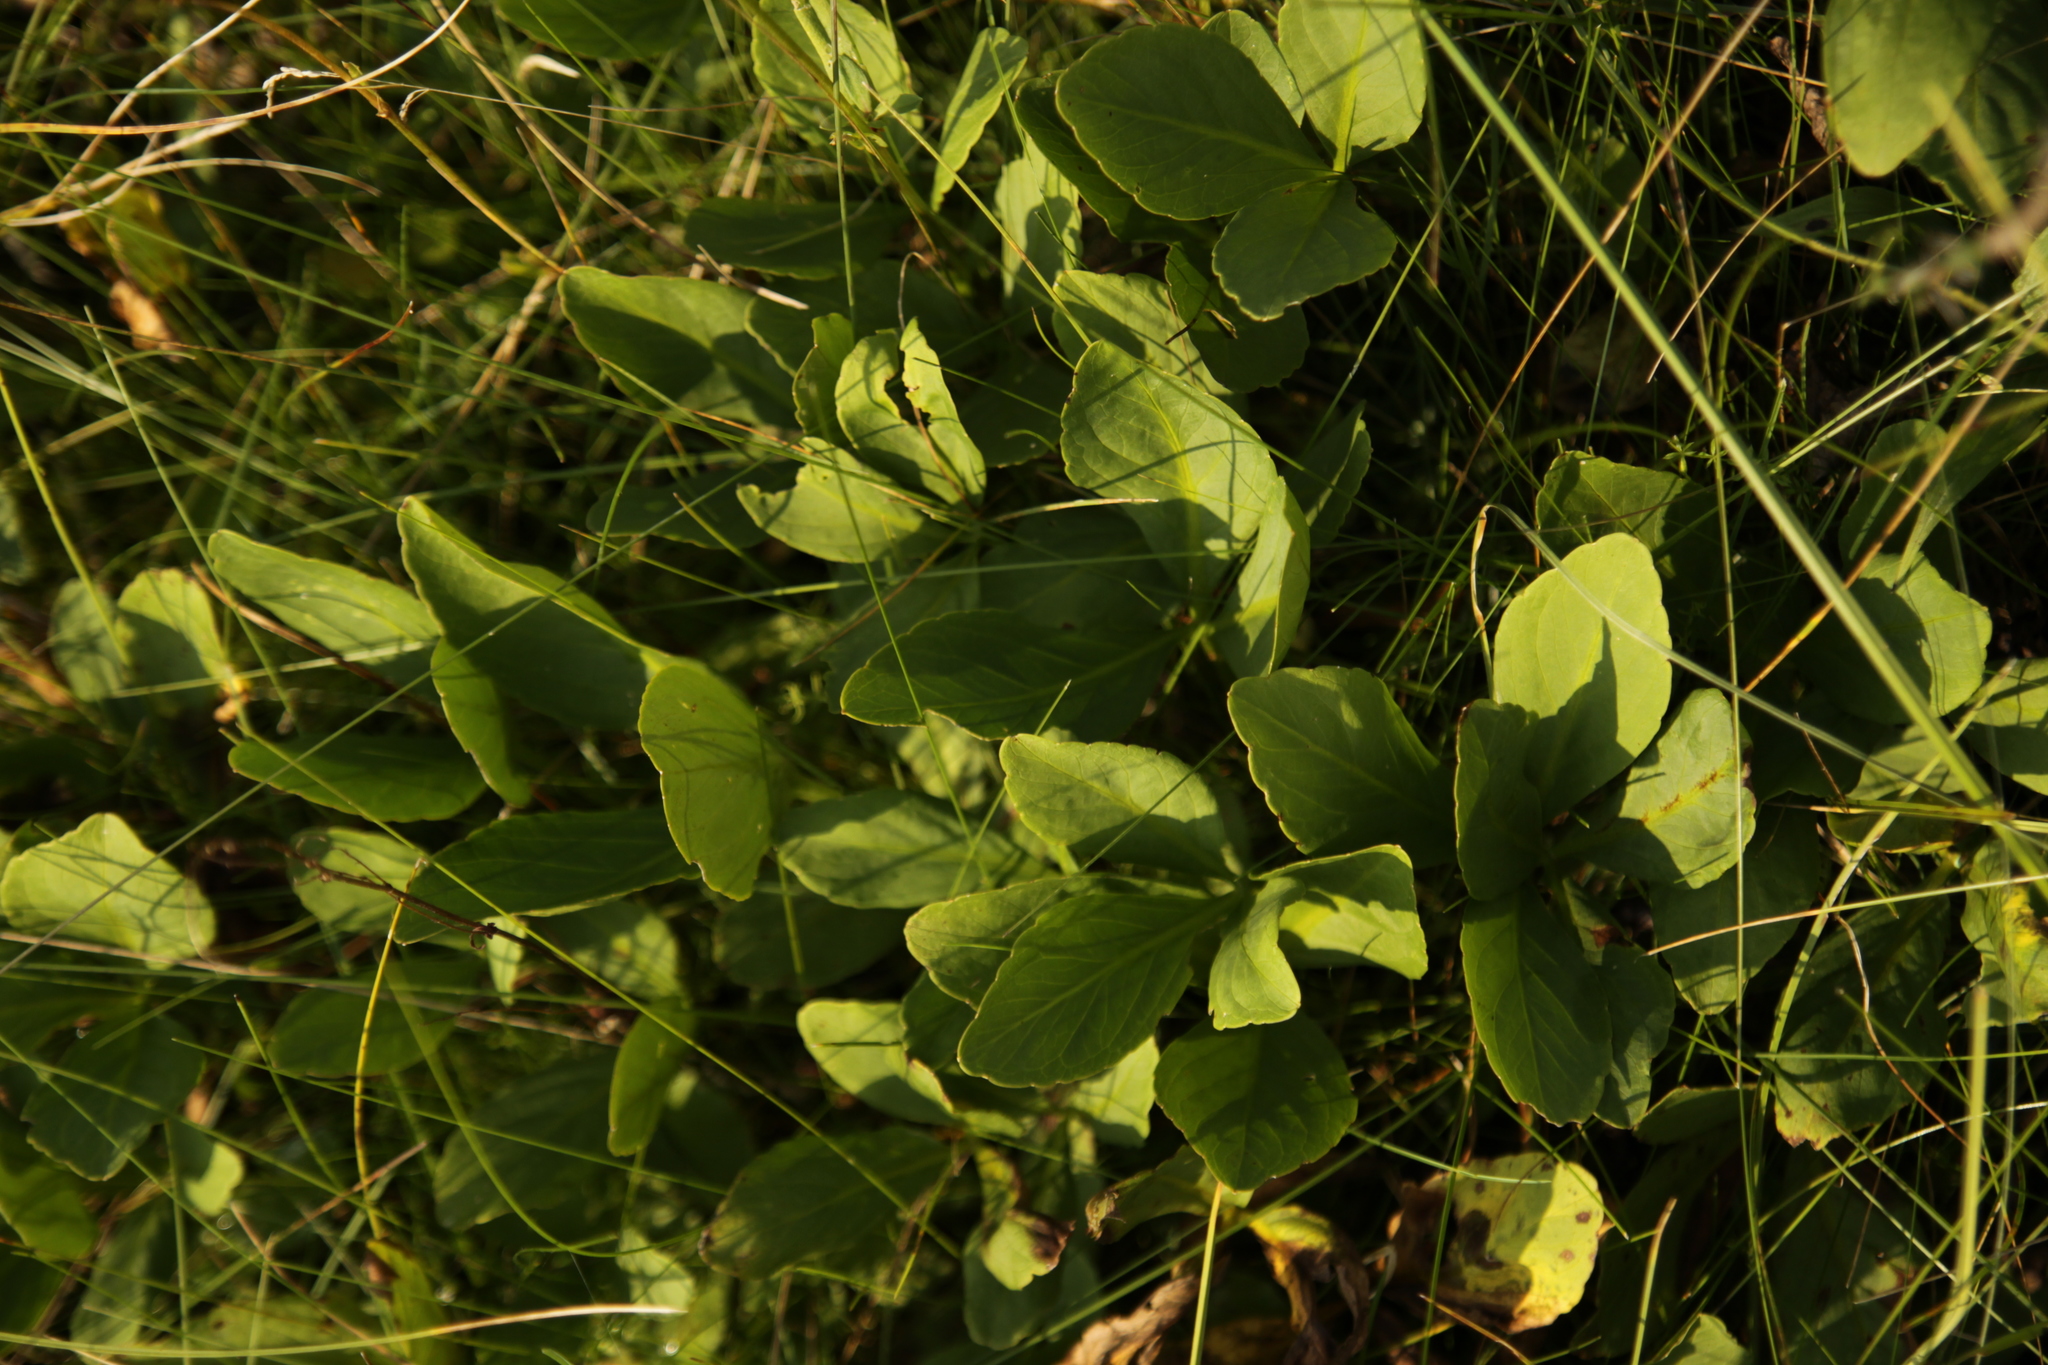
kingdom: Plantae
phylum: Tracheophyta
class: Magnoliopsida
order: Asterales
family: Menyanthaceae
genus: Menyanthes
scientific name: Menyanthes trifoliata
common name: Bogbean
